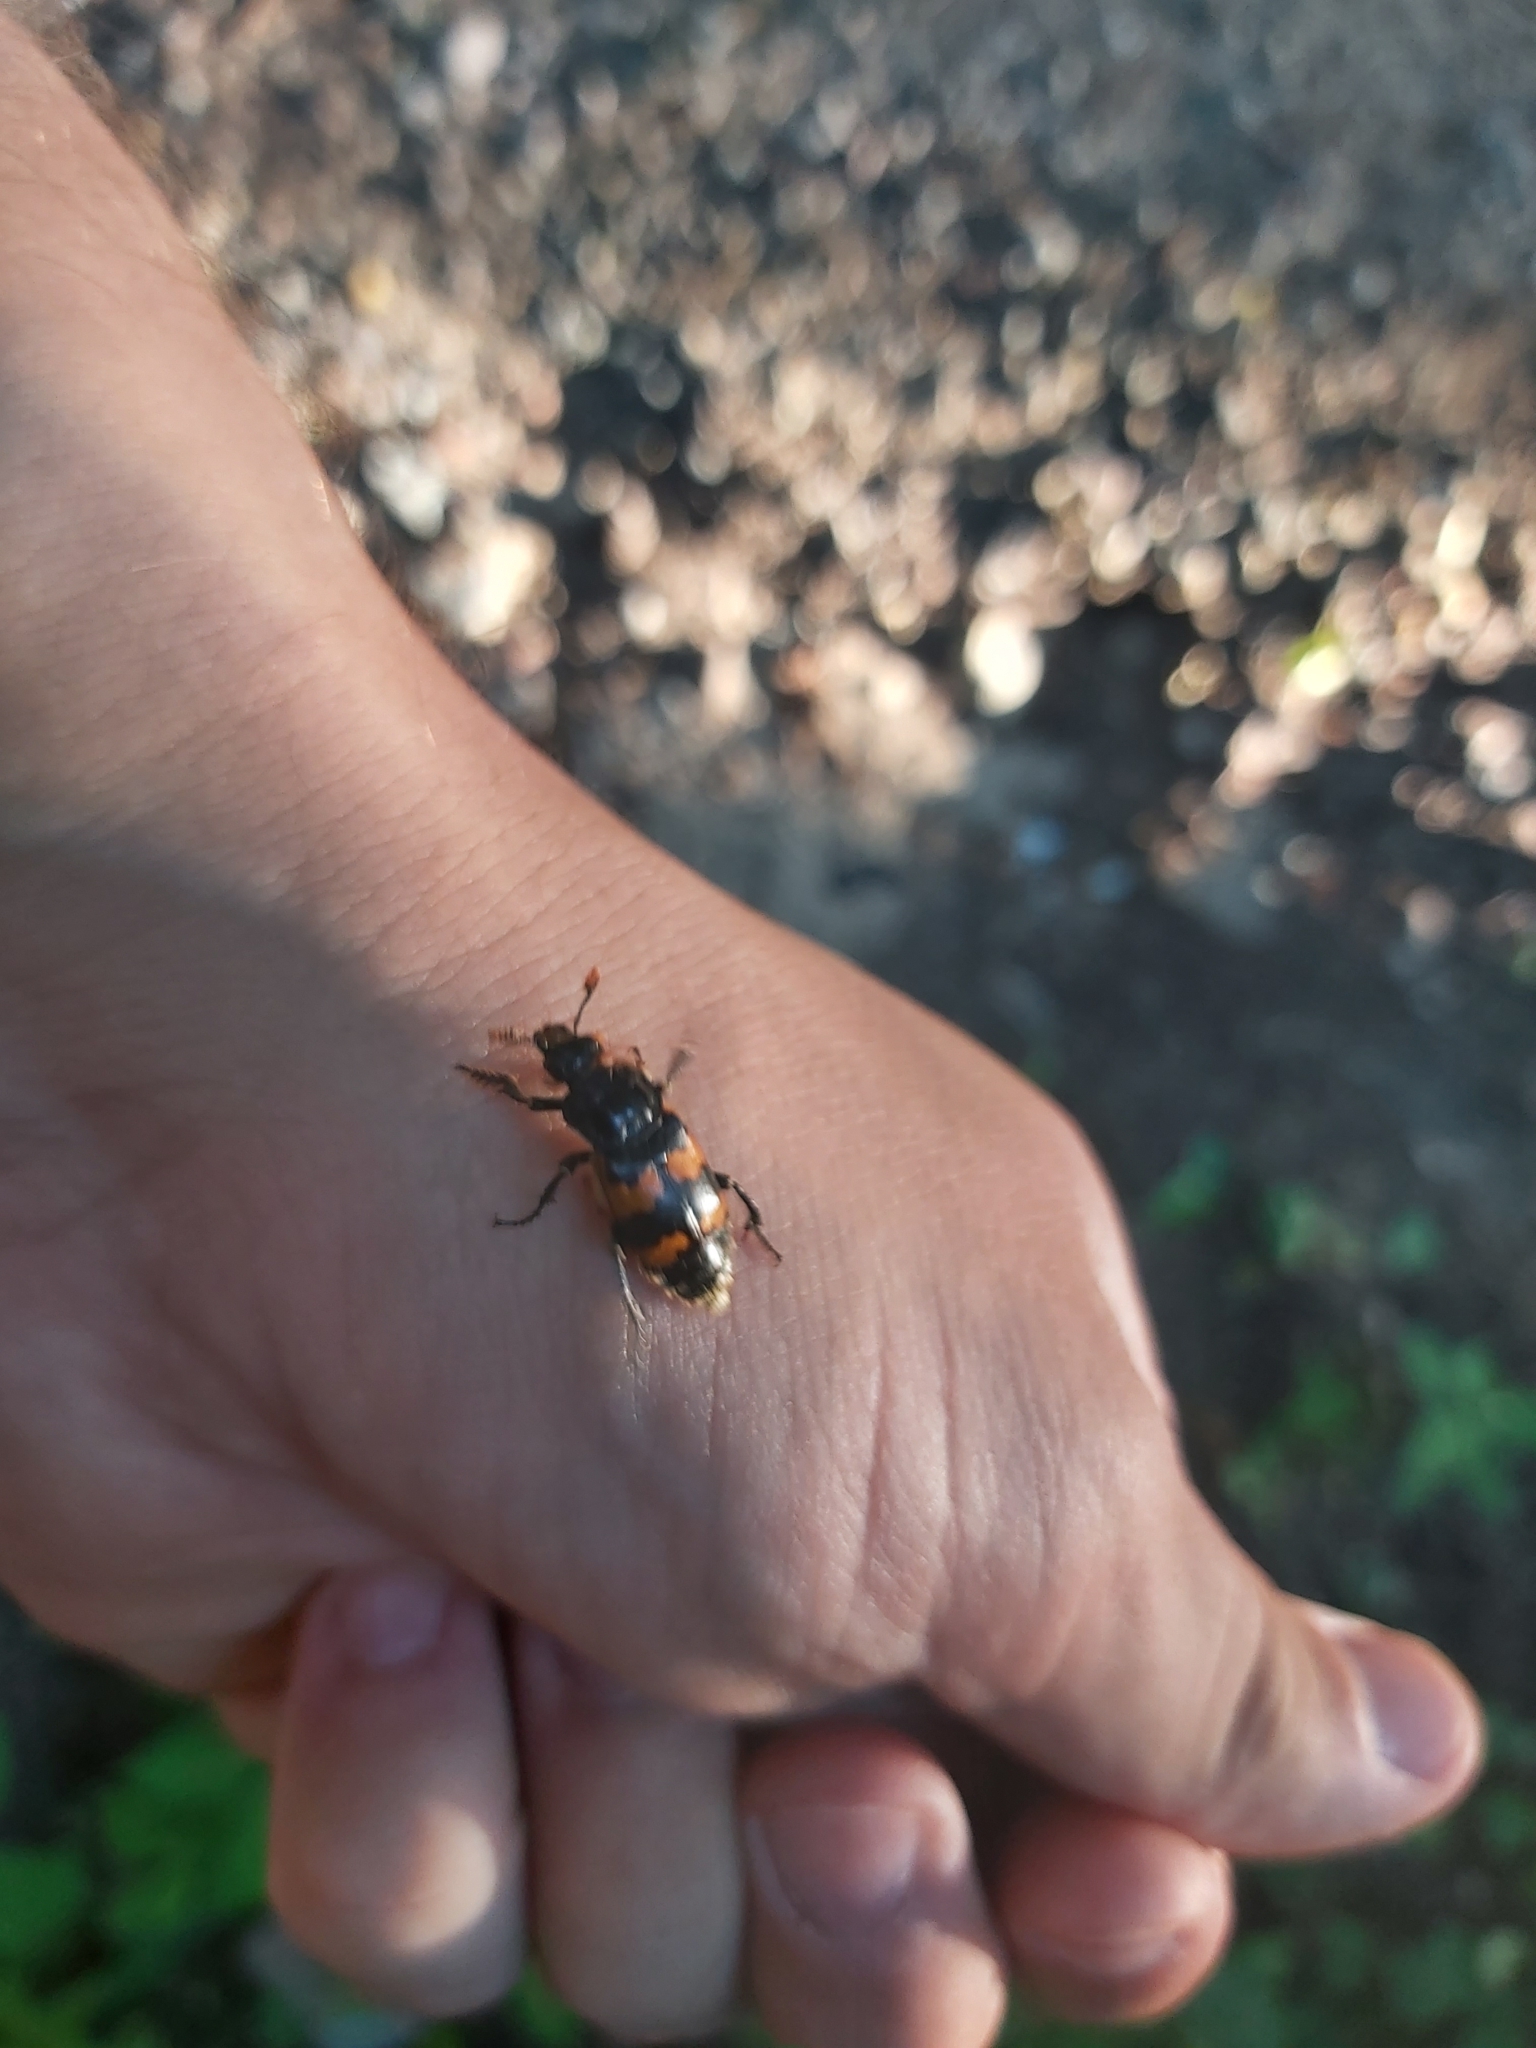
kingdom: Animalia
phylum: Arthropoda
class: Insecta
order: Coleoptera
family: Staphylinidae
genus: Nicrophorus
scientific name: Nicrophorus vespillo
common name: Common burying beetle
